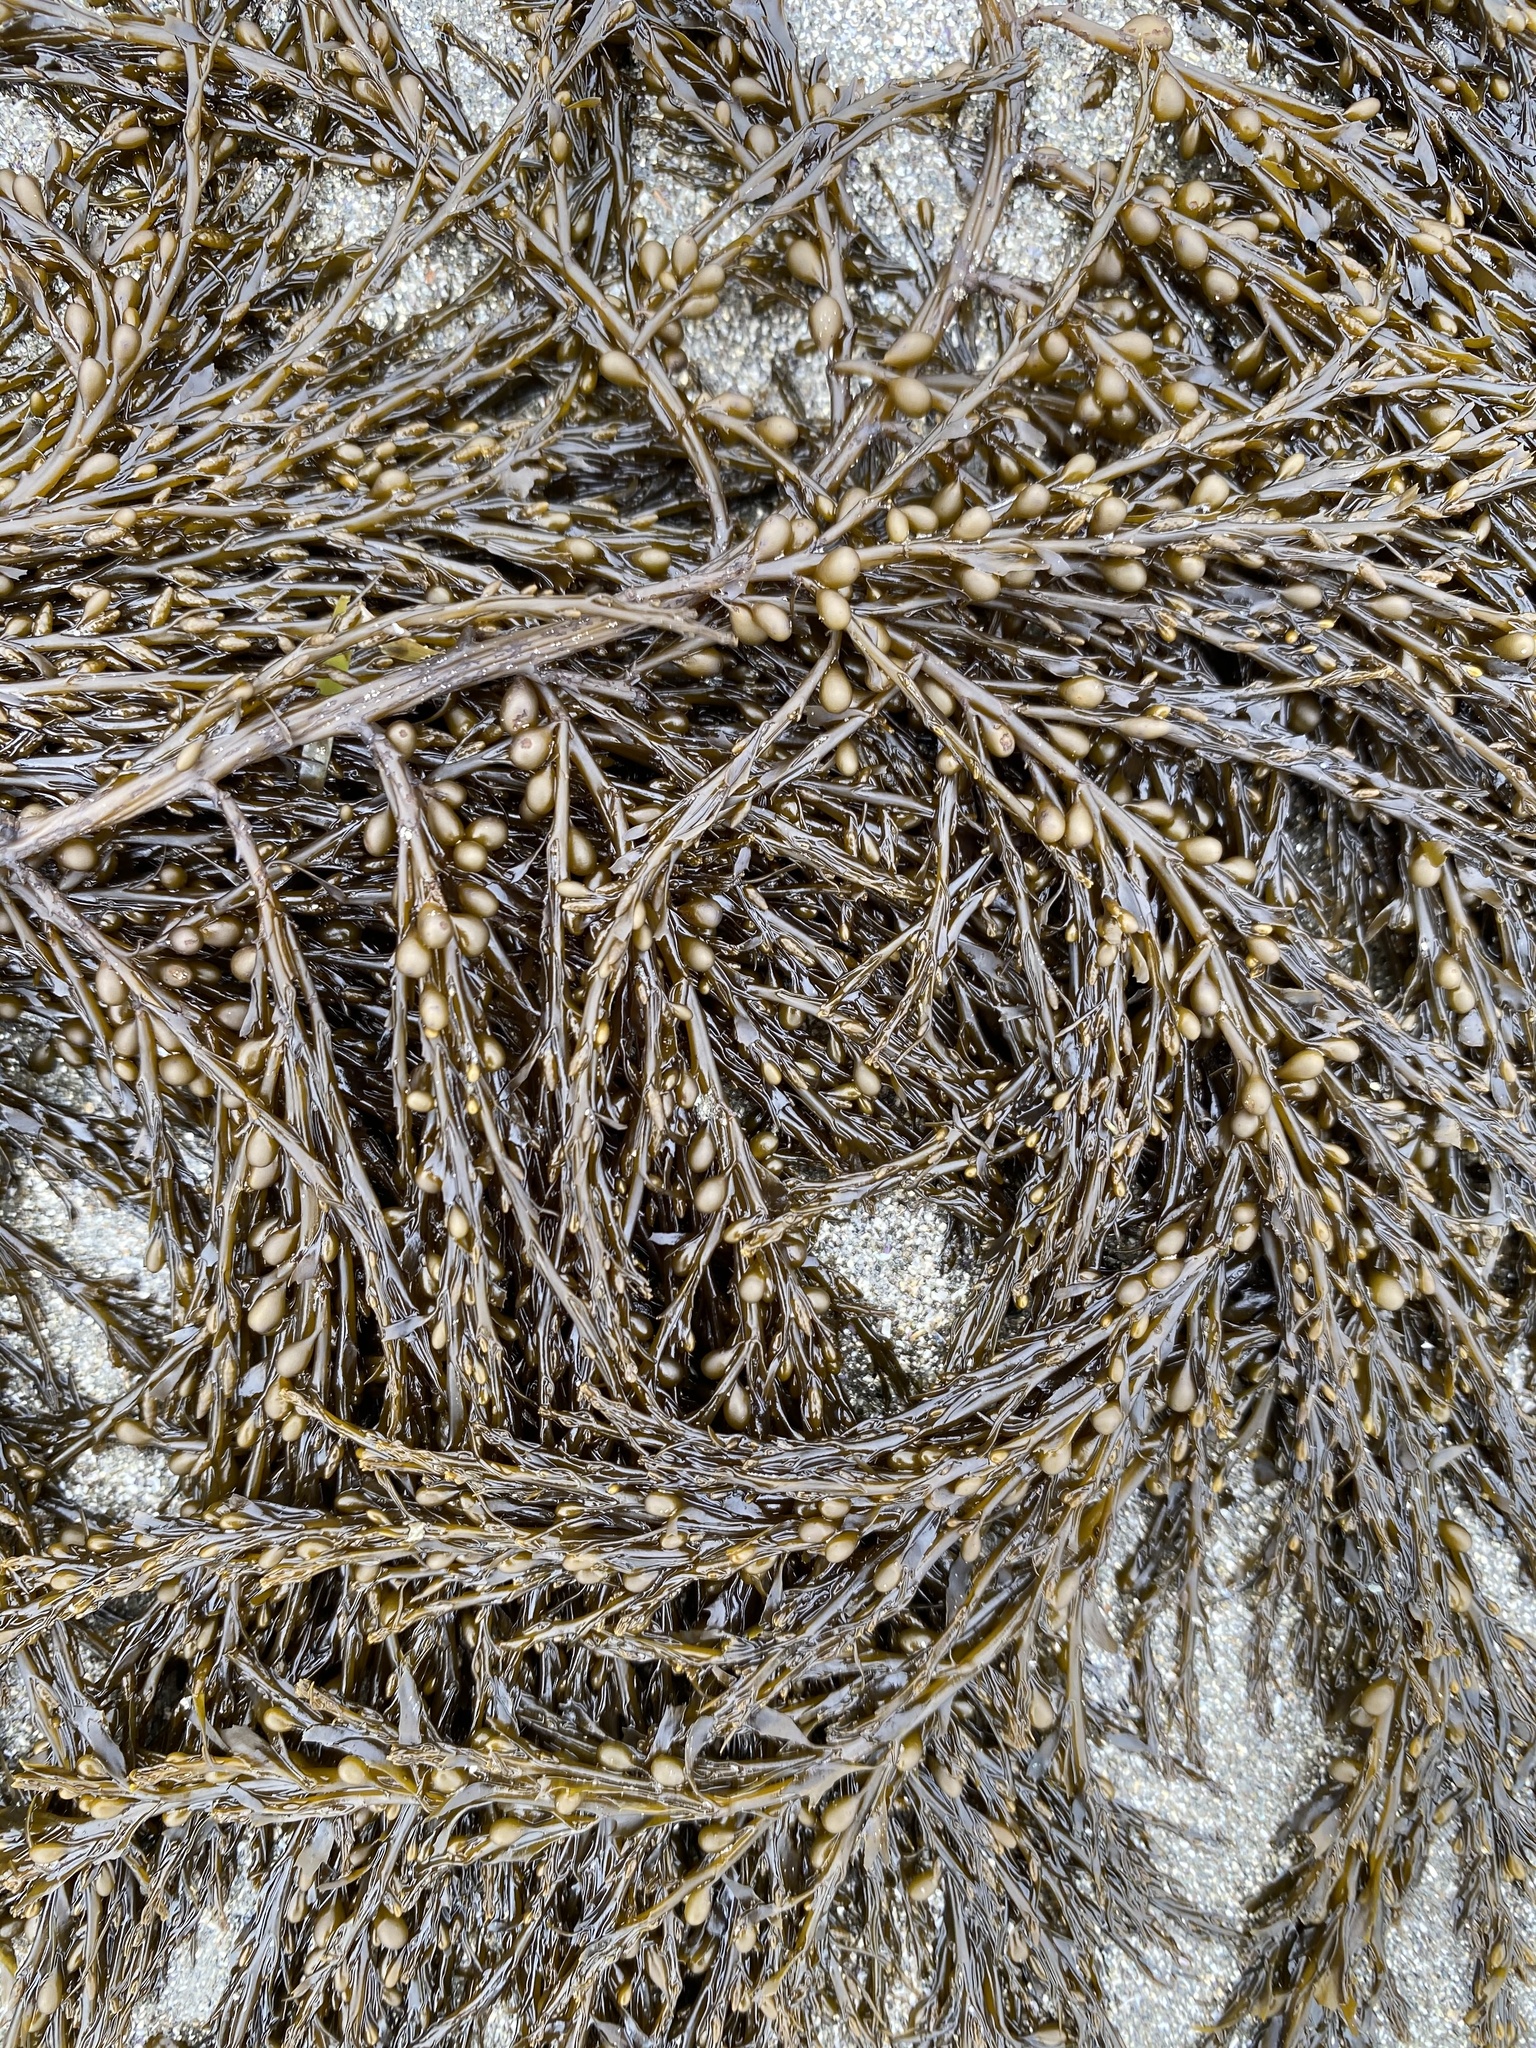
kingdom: Chromista
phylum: Ochrophyta
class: Phaeophyceae
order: Fucales
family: Sargassaceae
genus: Sargassum
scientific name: Sargassum muticum
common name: Japweed
